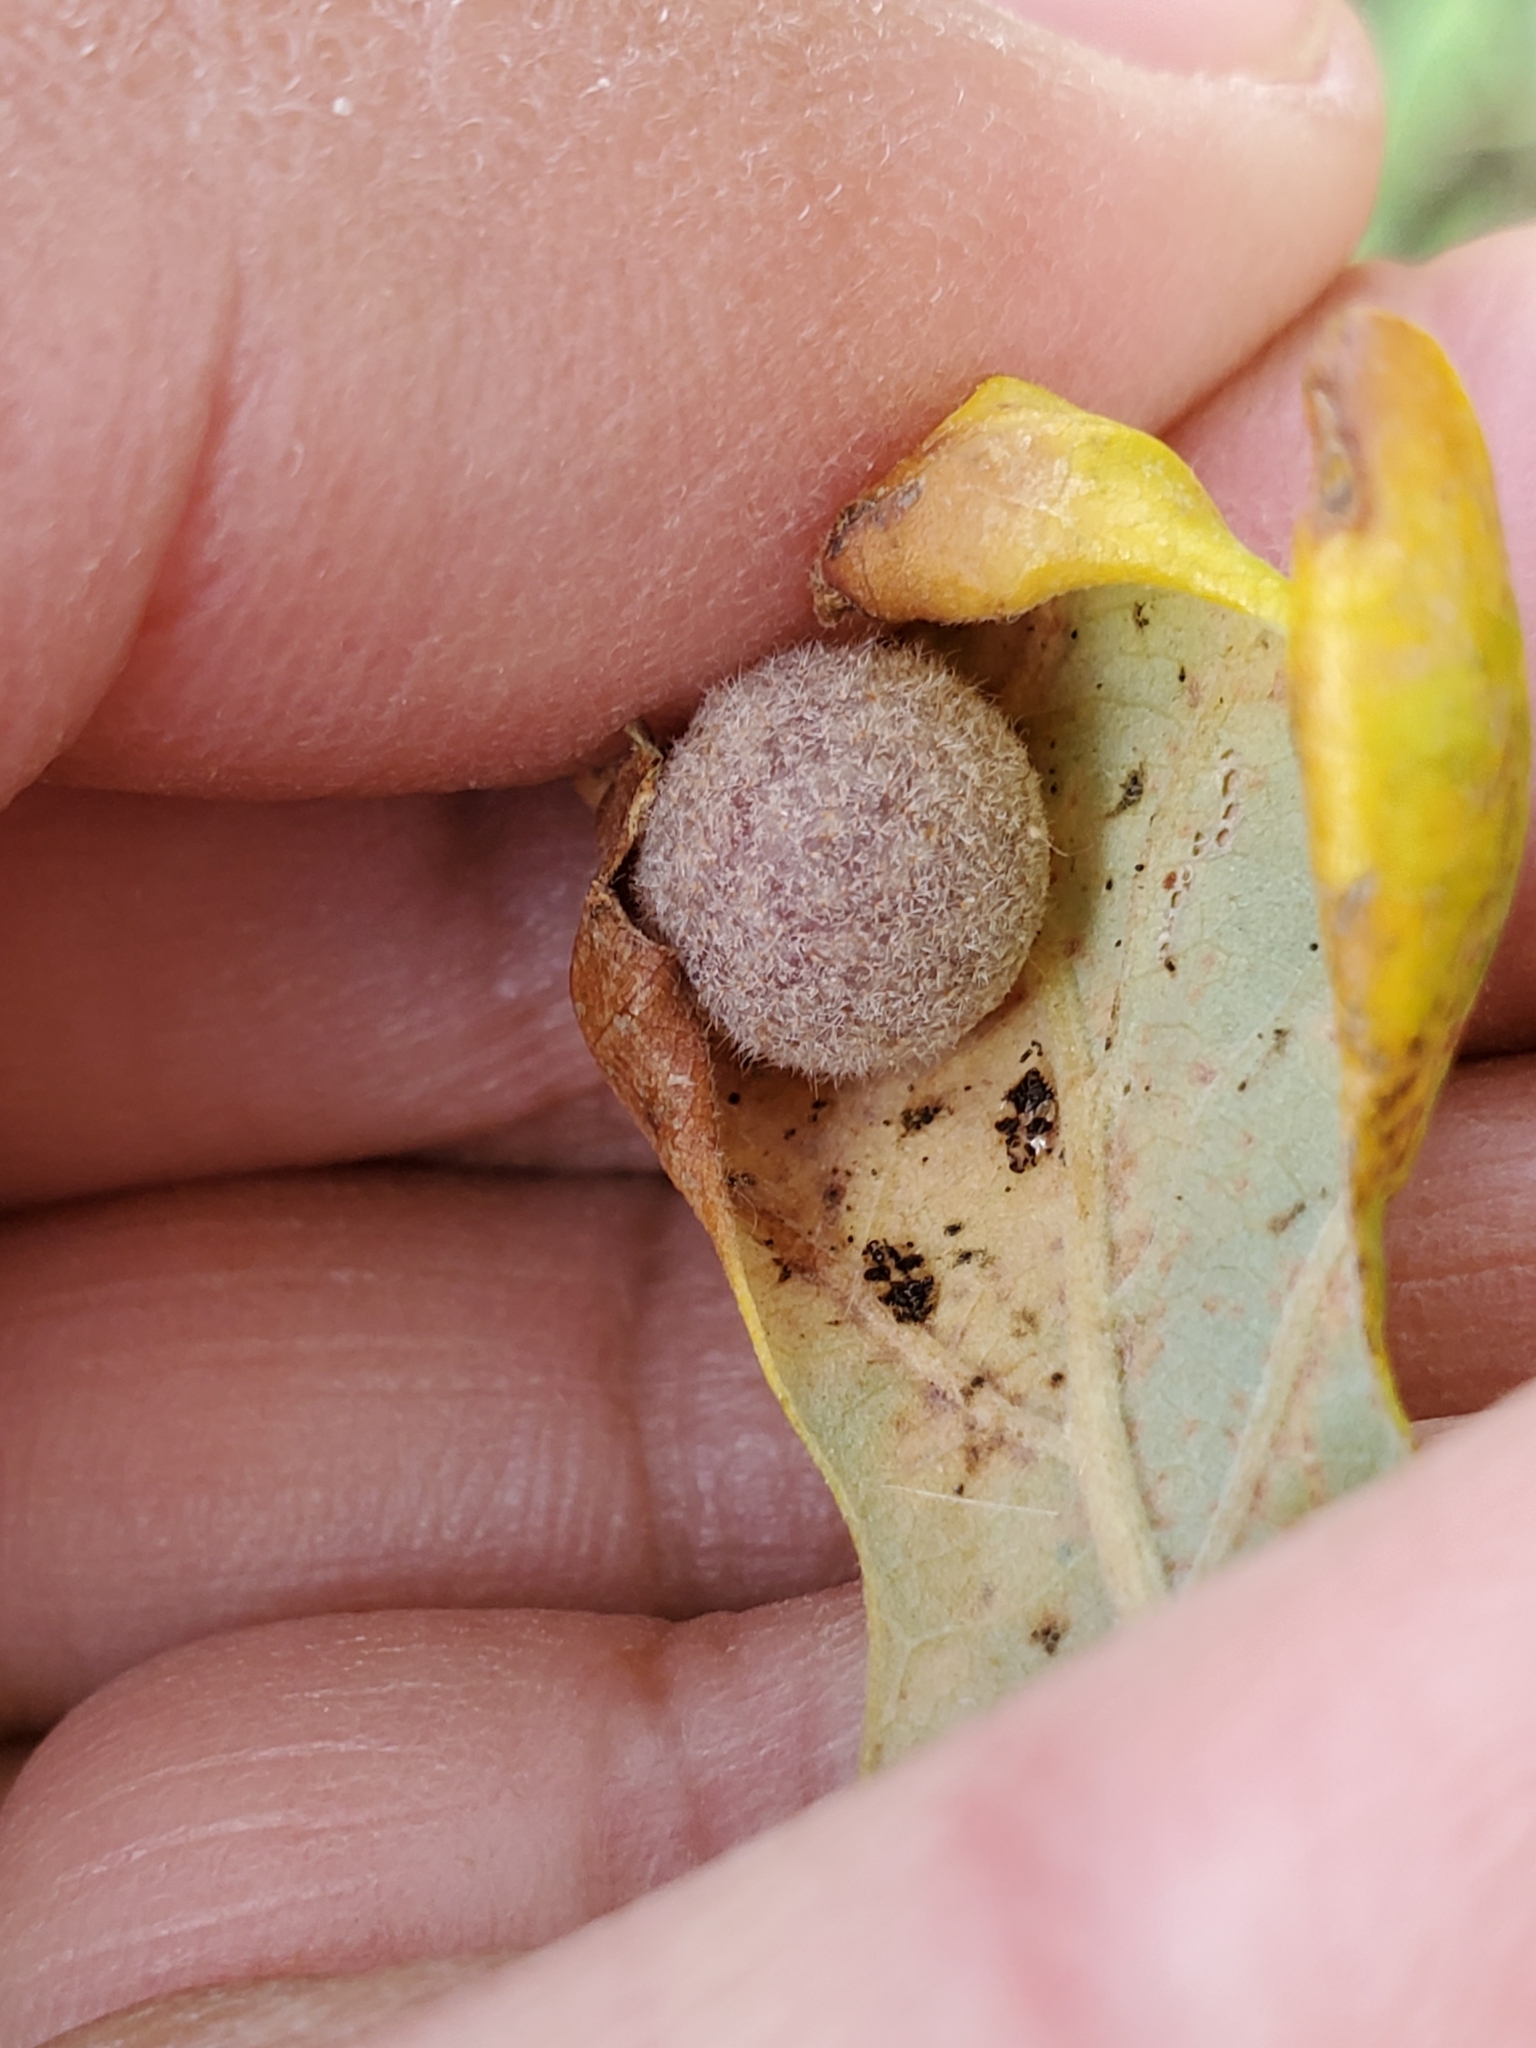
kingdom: Animalia
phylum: Arthropoda
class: Insecta
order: Hymenoptera
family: Cynipidae
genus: Philonix
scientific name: Philonix fulvicollis
